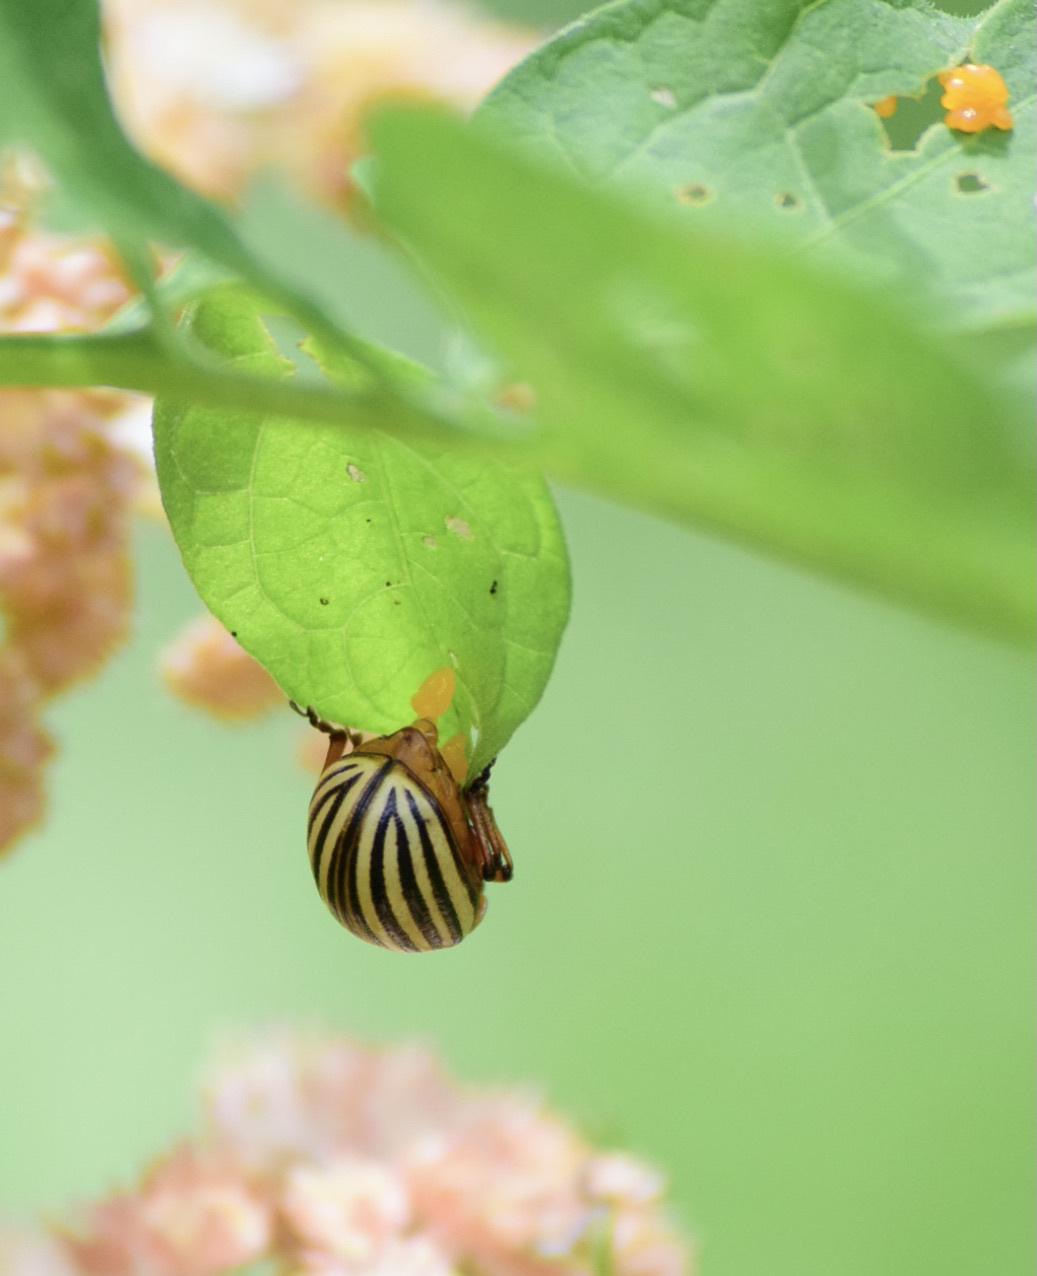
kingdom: Animalia
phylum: Arthropoda
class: Insecta
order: Coleoptera
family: Chrysomelidae
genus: Leptinotarsa
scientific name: Leptinotarsa decemlineata
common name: Colorado potato beetle
